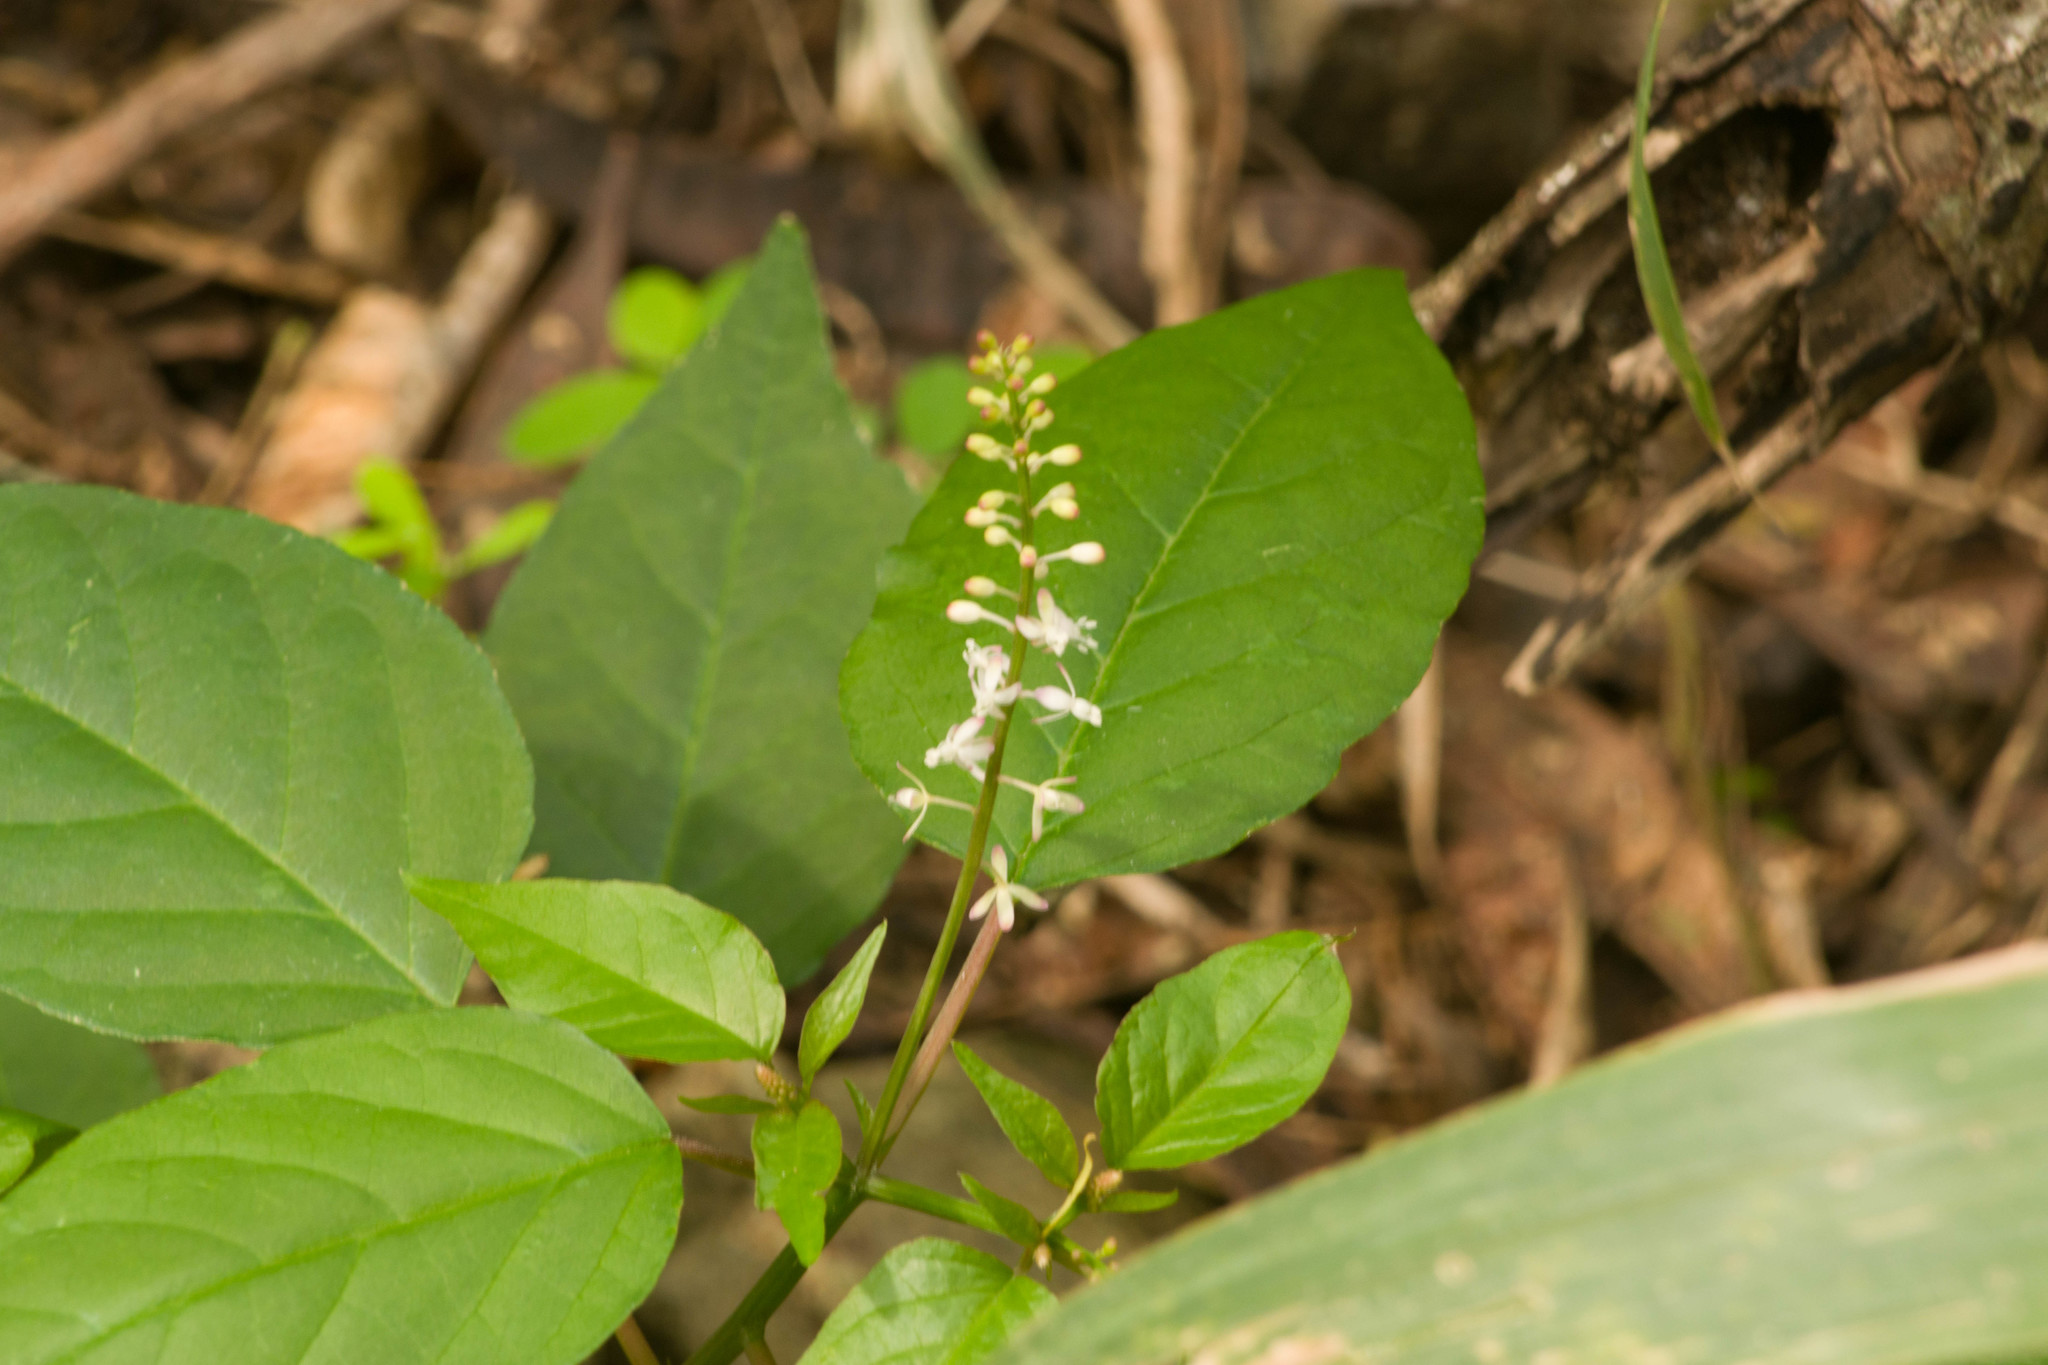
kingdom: Plantae
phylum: Tracheophyta
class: Magnoliopsida
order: Caryophyllales
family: Phytolaccaceae
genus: Rivina
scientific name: Rivina humilis
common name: Rougeplant
